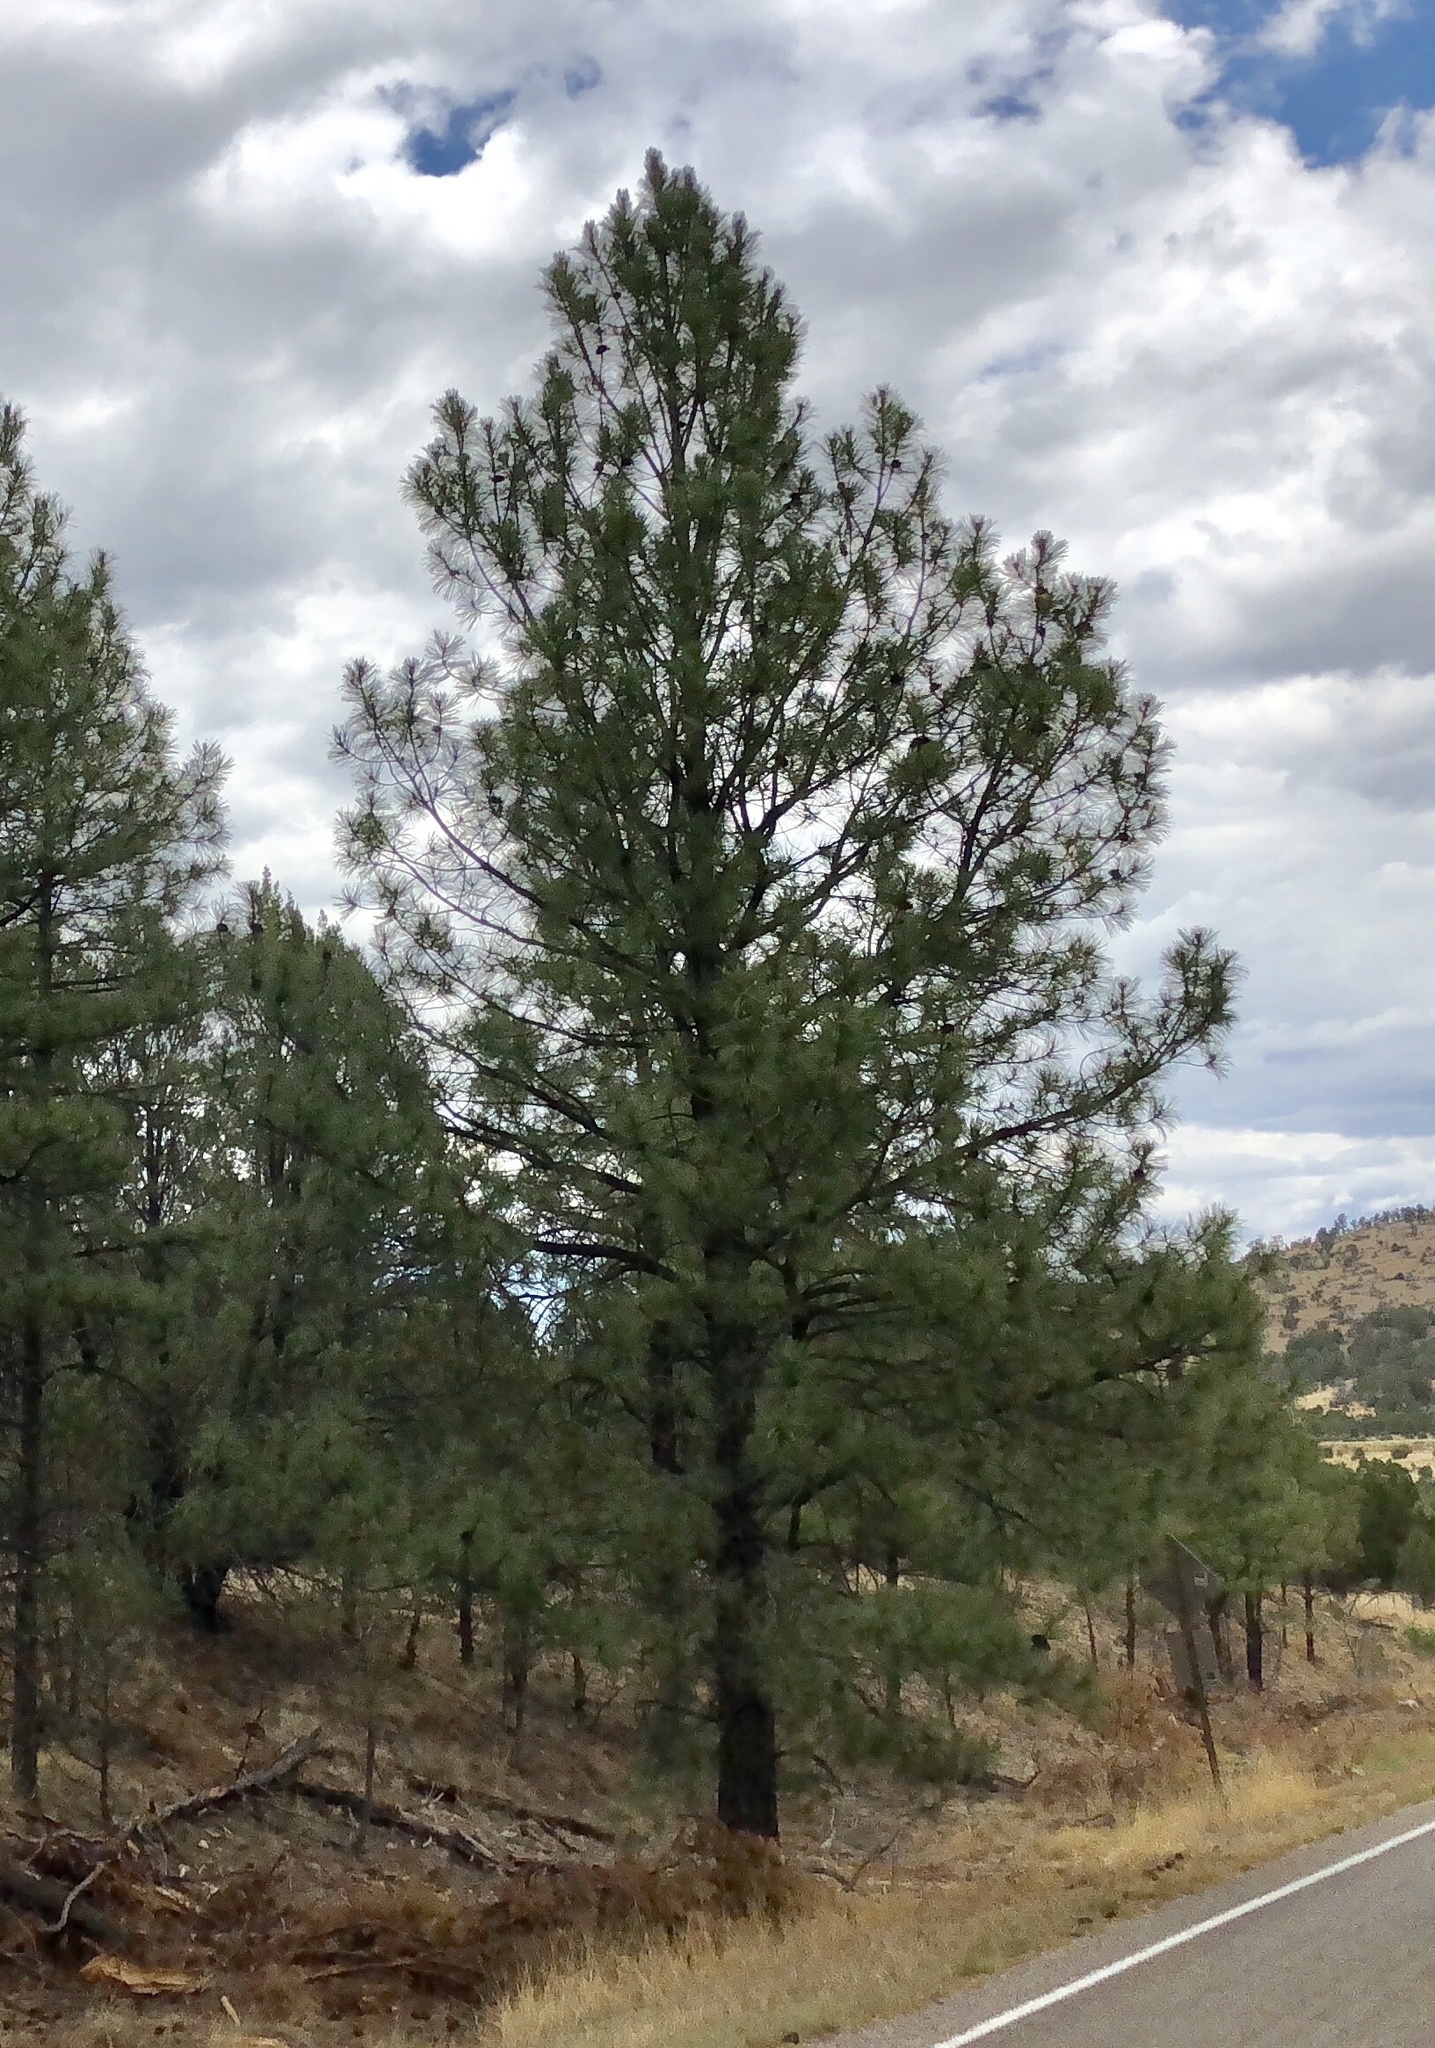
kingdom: Plantae
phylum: Tracheophyta
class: Pinopsida
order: Pinales
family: Pinaceae
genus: Pinus
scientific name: Pinus ponderosa
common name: Western yellow-pine
